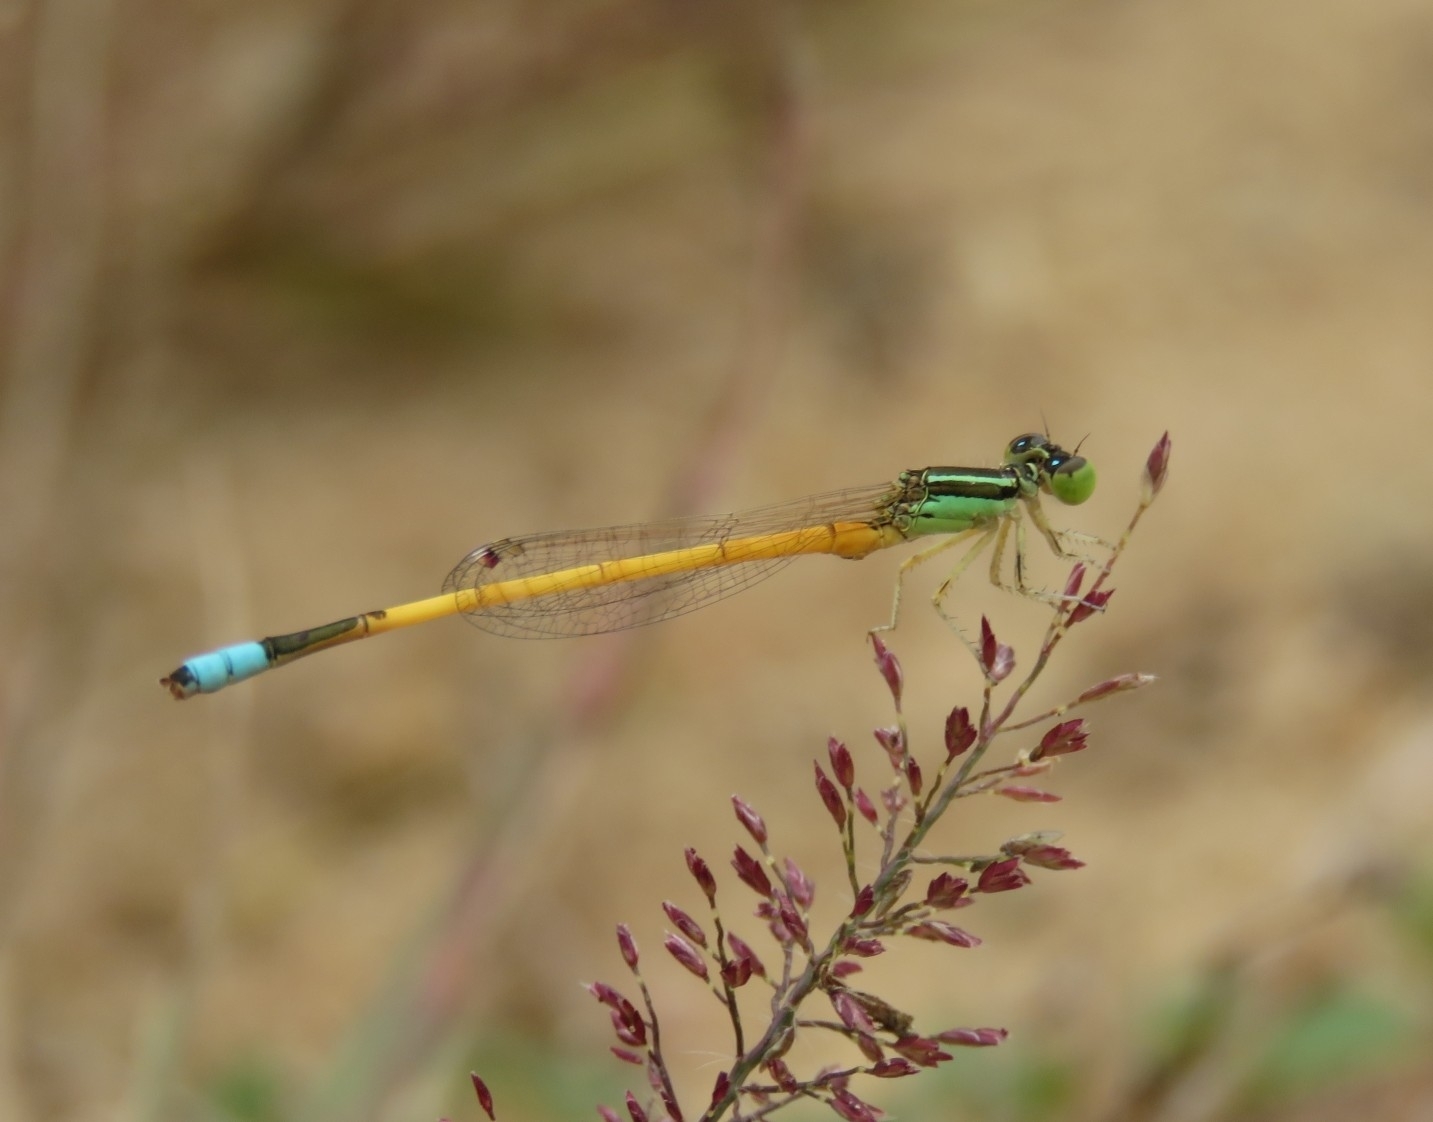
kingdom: Animalia
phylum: Arthropoda
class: Insecta
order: Odonata
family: Coenagrionidae
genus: Ischnura
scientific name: Ischnura rubilio
